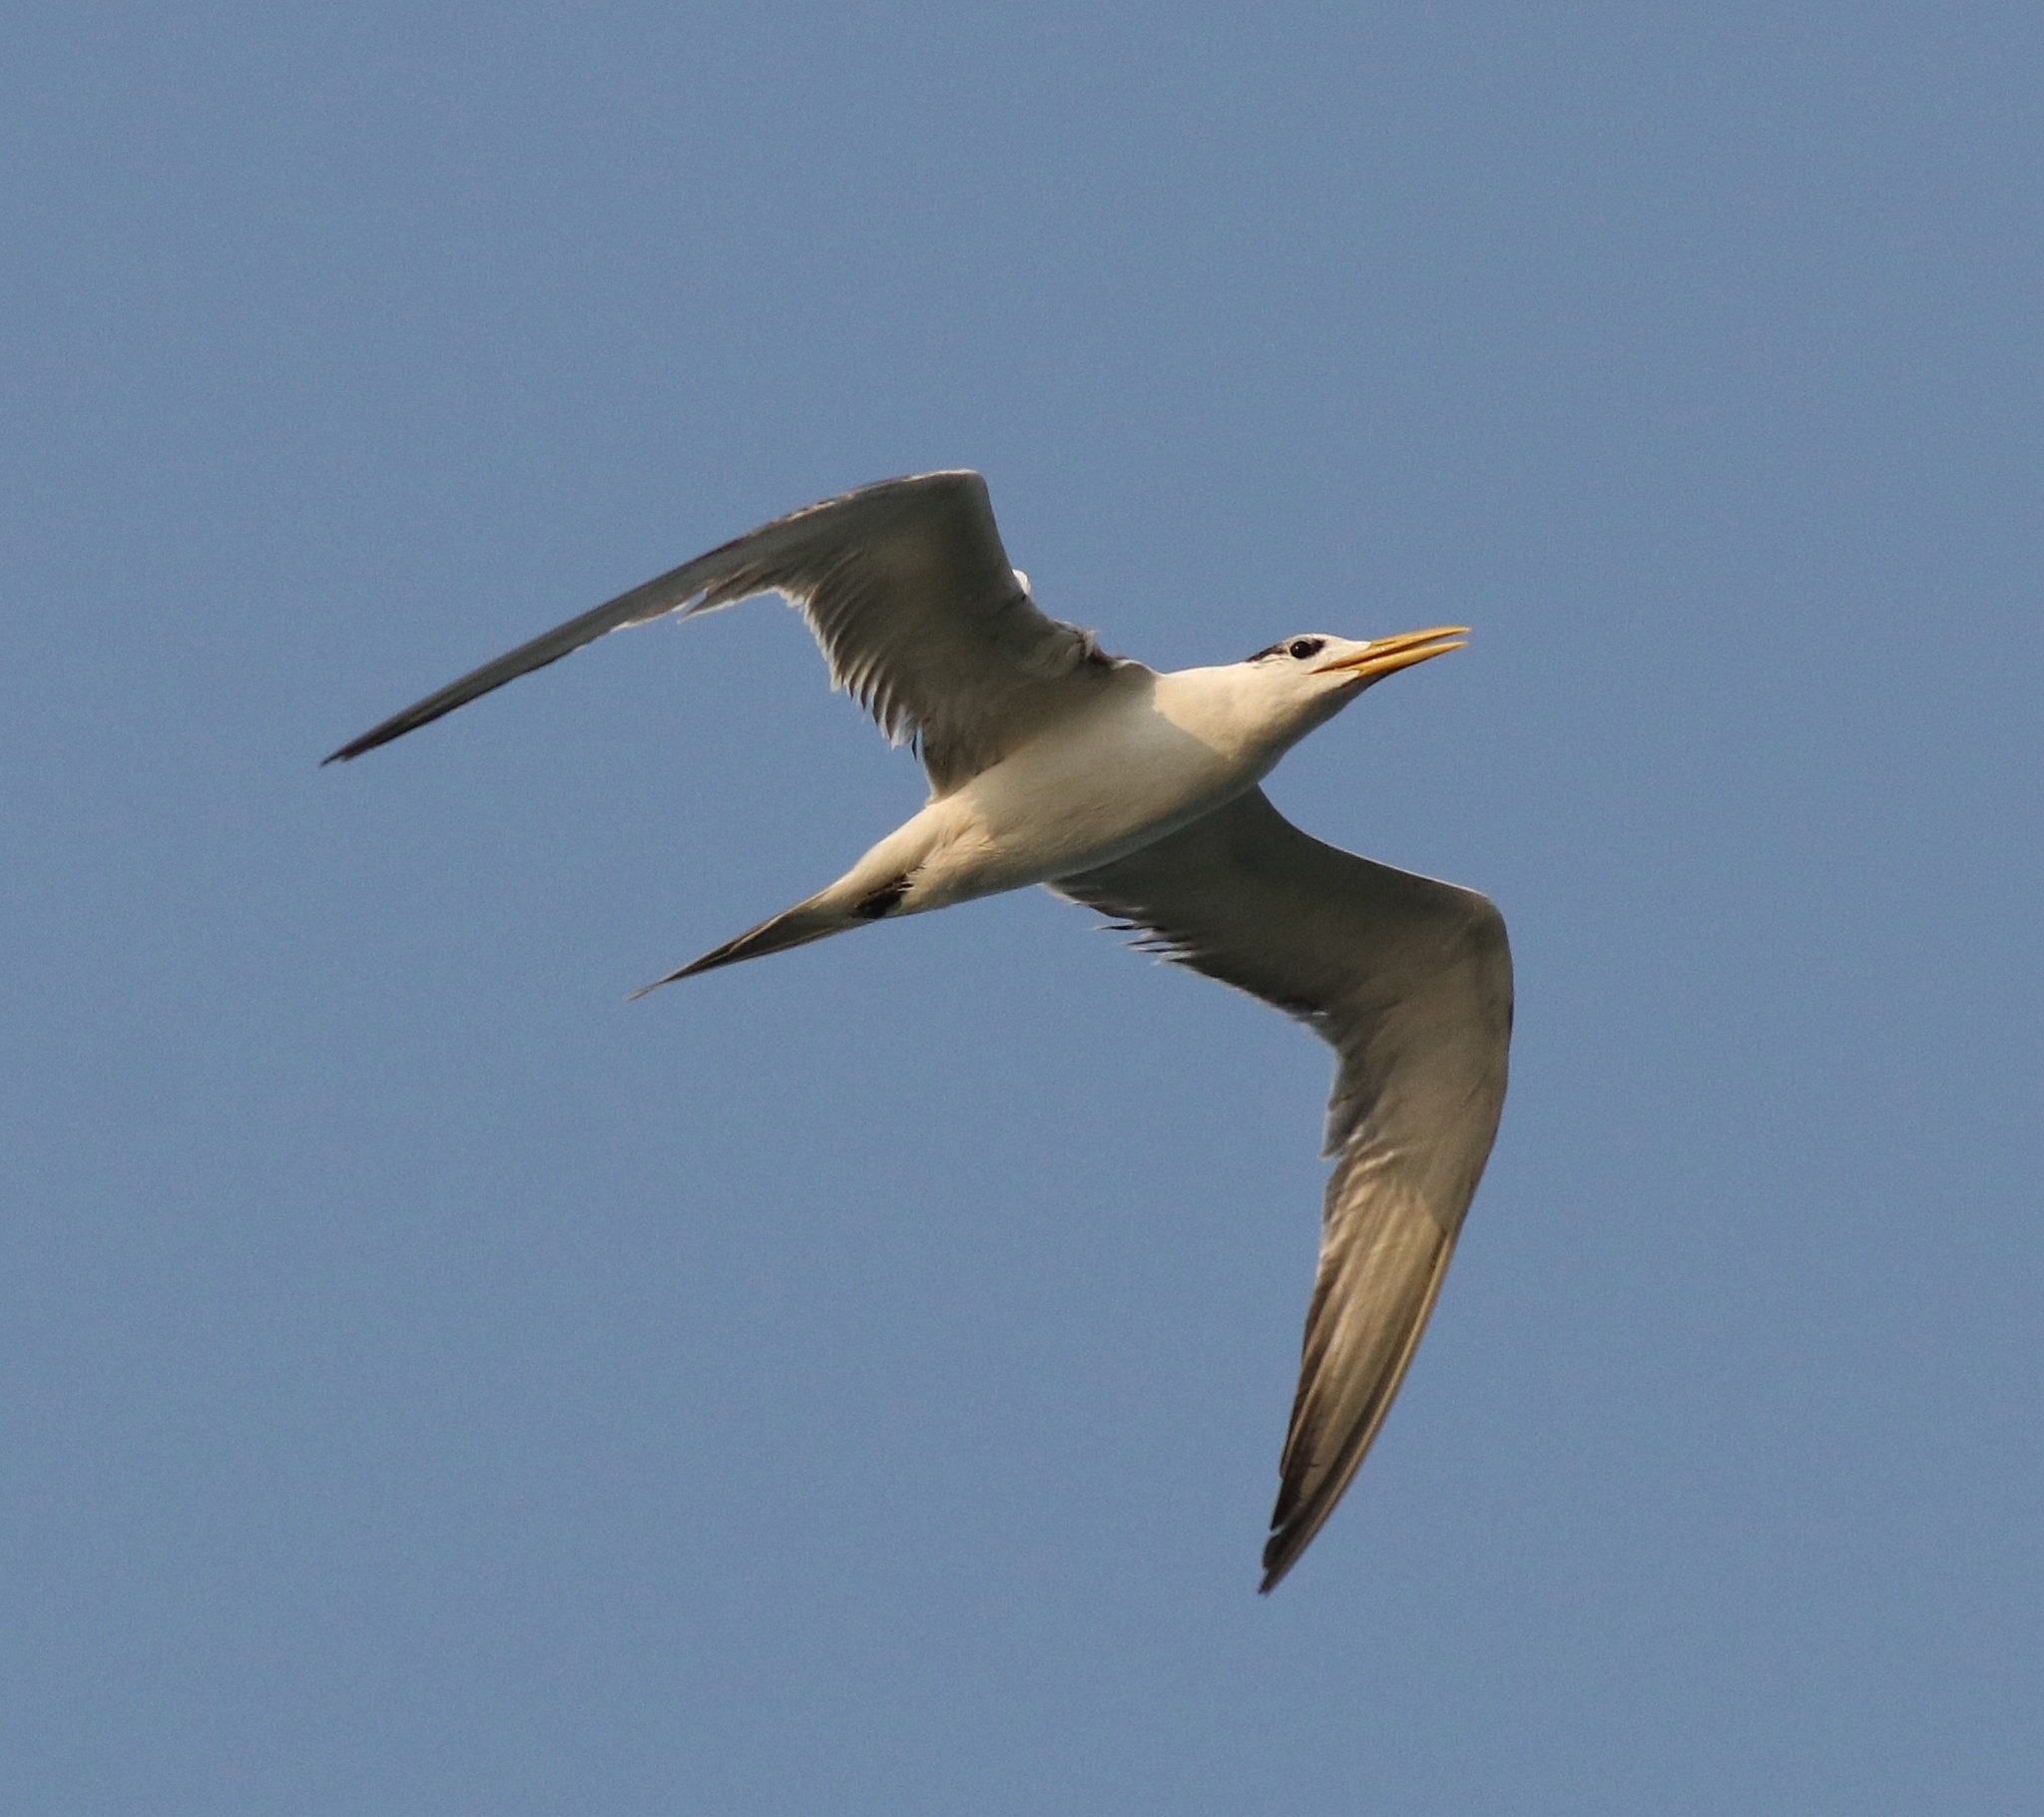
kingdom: Animalia
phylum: Chordata
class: Aves
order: Charadriiformes
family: Laridae
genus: Thalasseus
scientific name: Thalasseus bergii
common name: Greater crested tern
